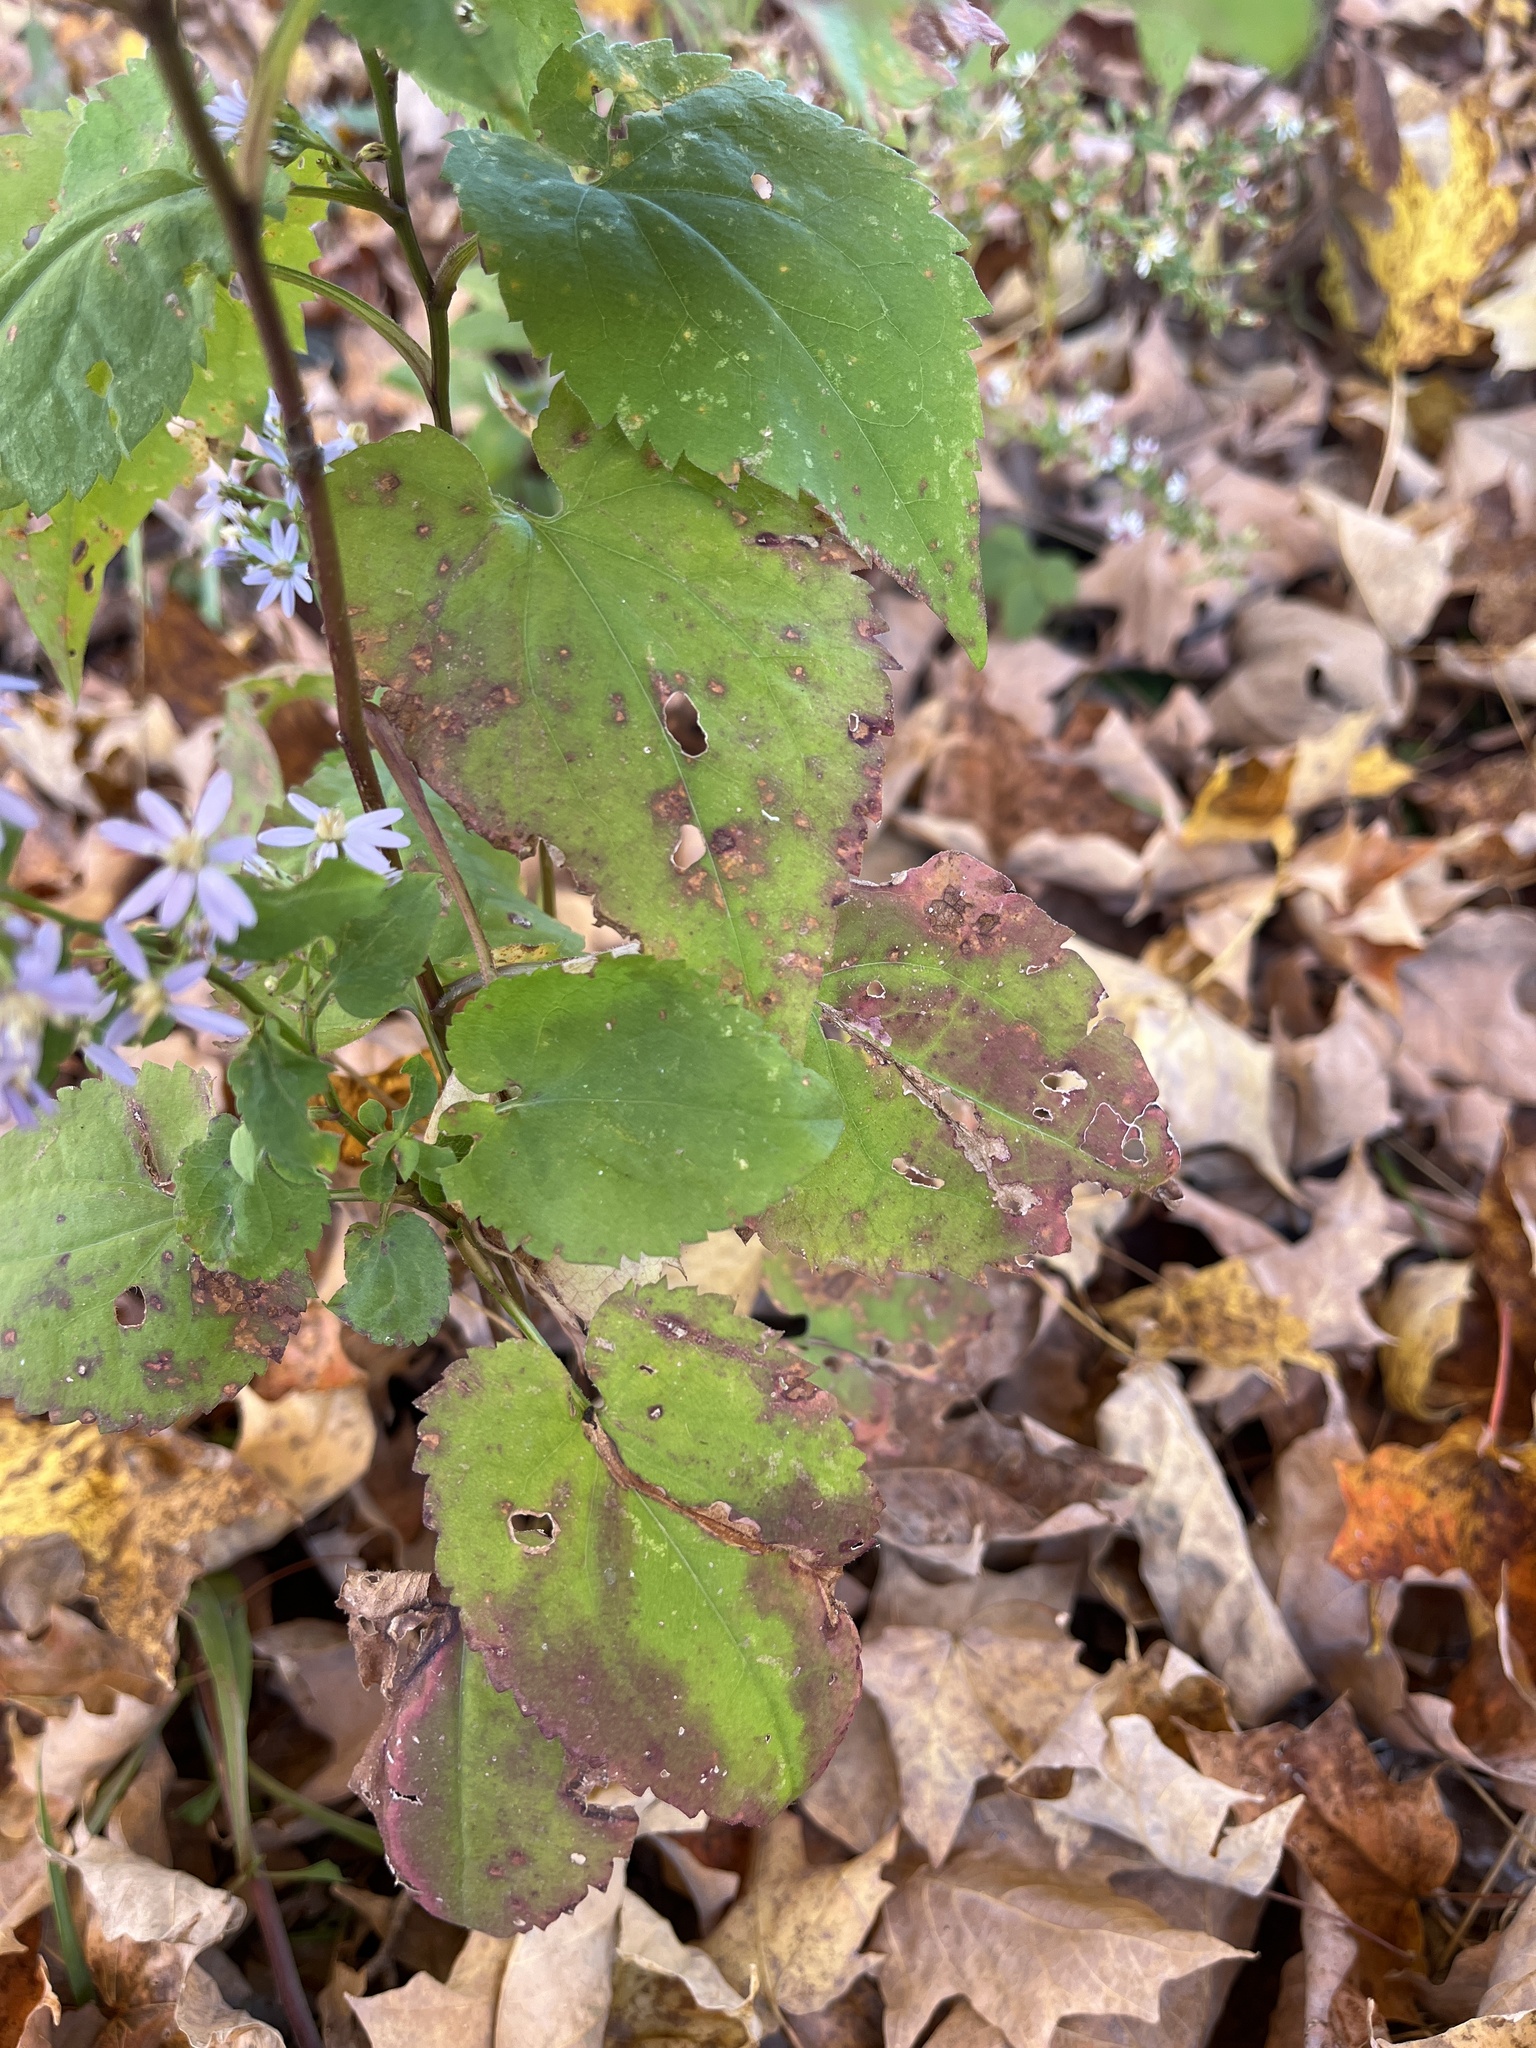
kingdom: Plantae
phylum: Tracheophyta
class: Magnoliopsida
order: Asterales
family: Asteraceae
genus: Symphyotrichum
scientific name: Symphyotrichum cordifolium
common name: Beeweed
